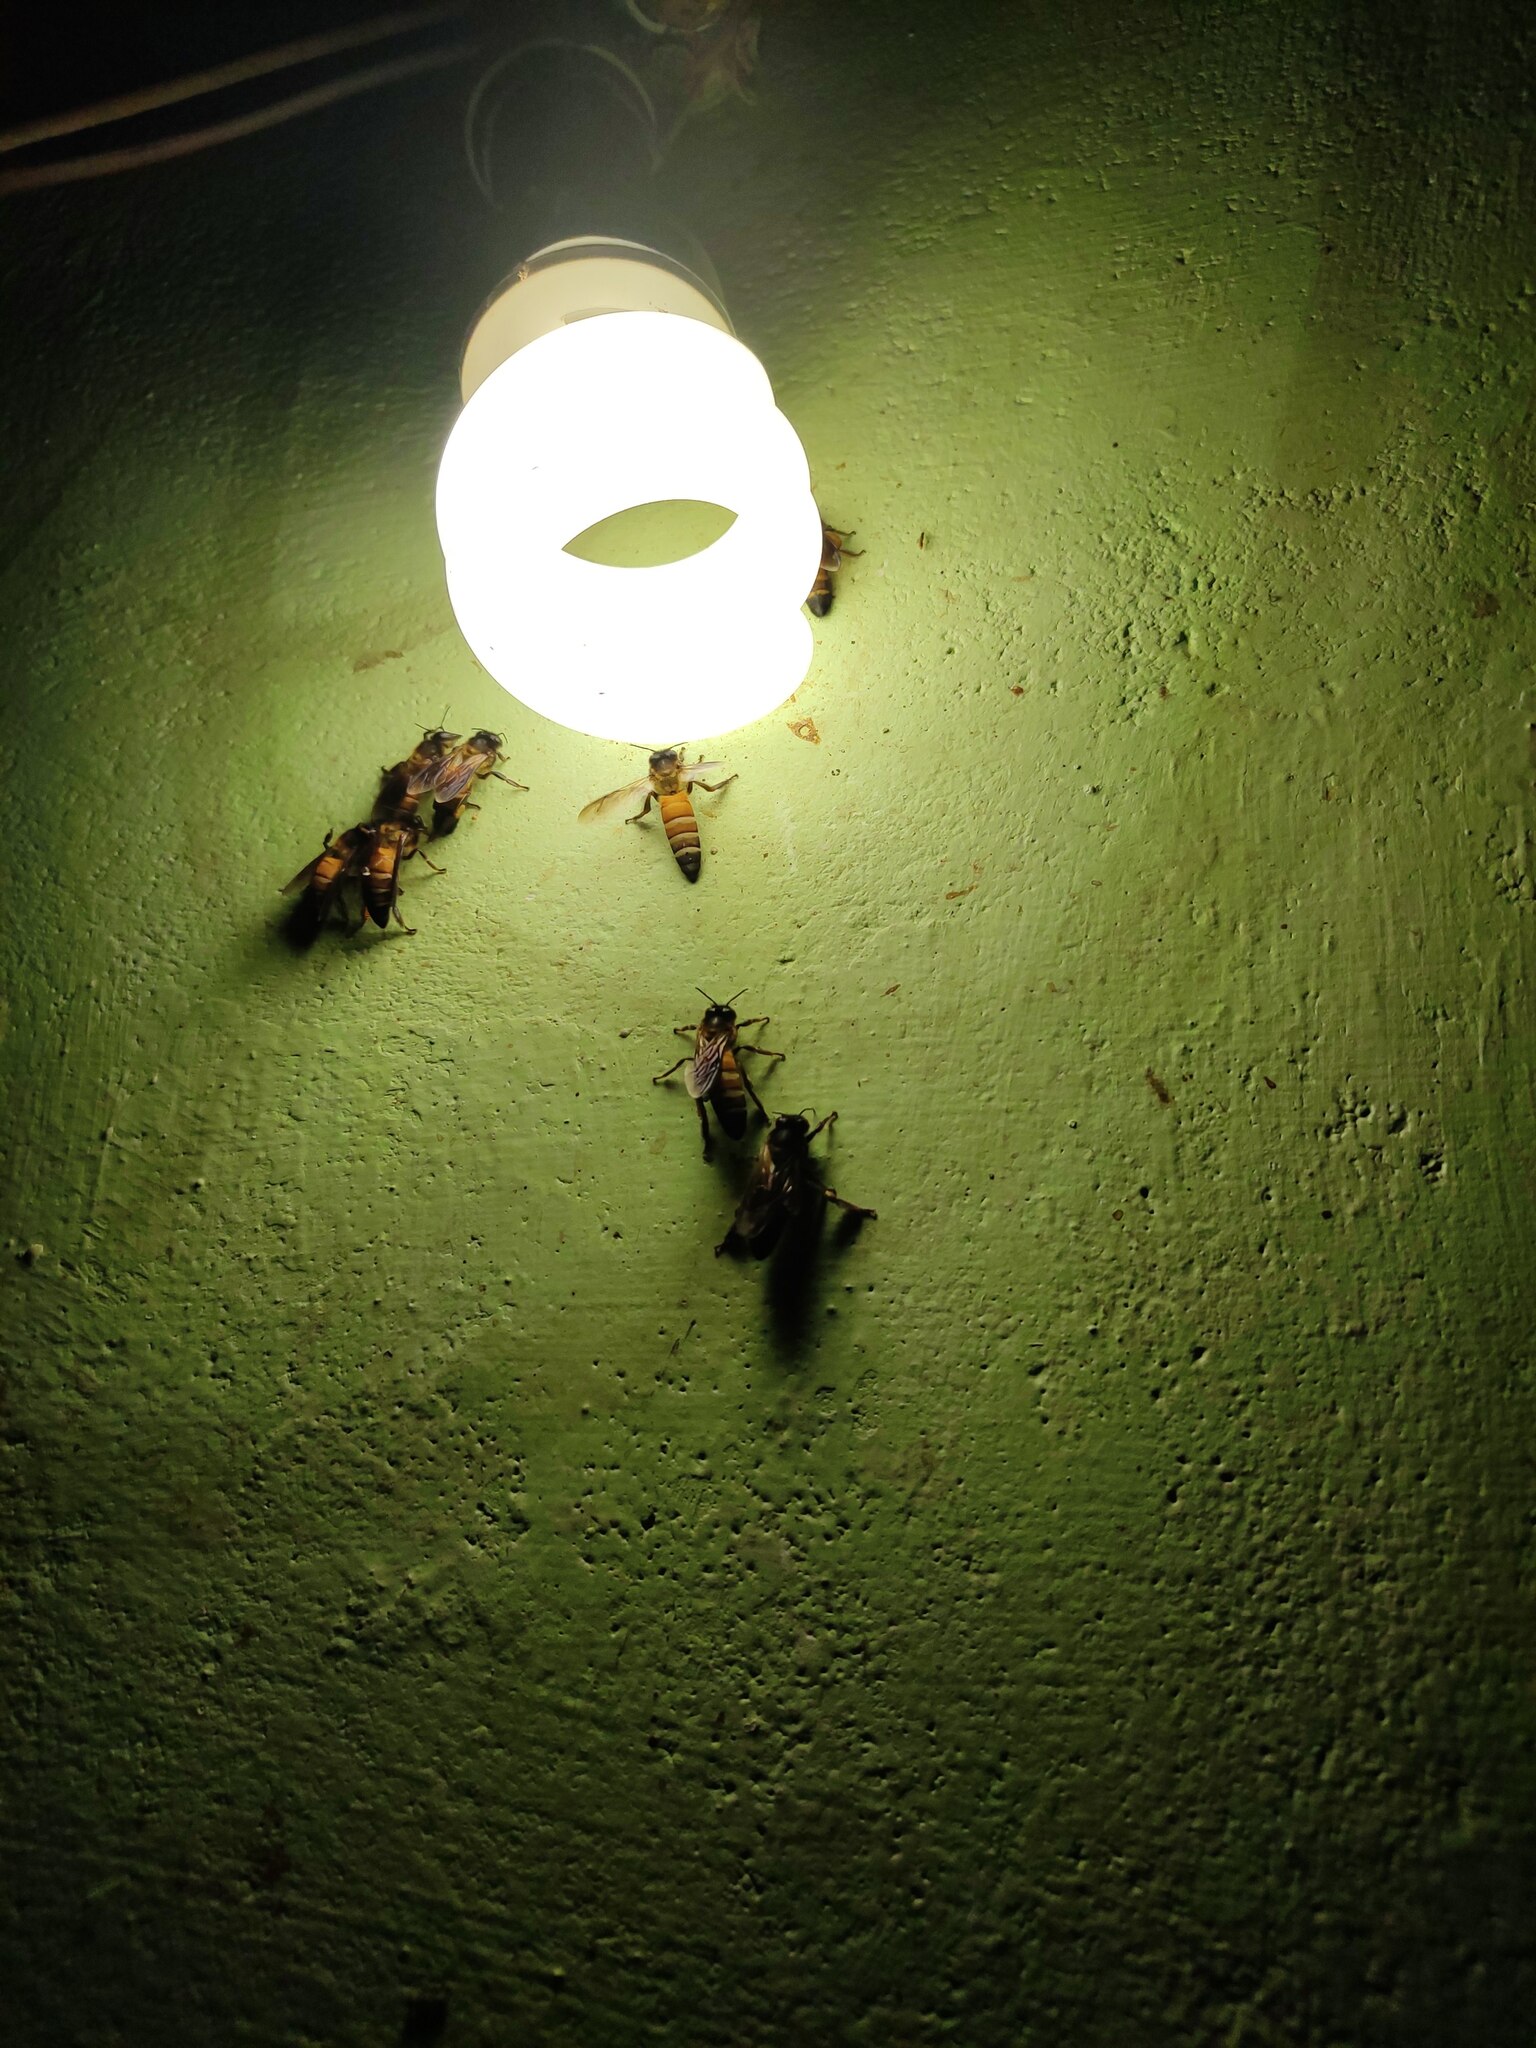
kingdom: Animalia
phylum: Arthropoda
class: Insecta
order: Hymenoptera
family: Apidae
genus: Apis
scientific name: Apis dorsata
